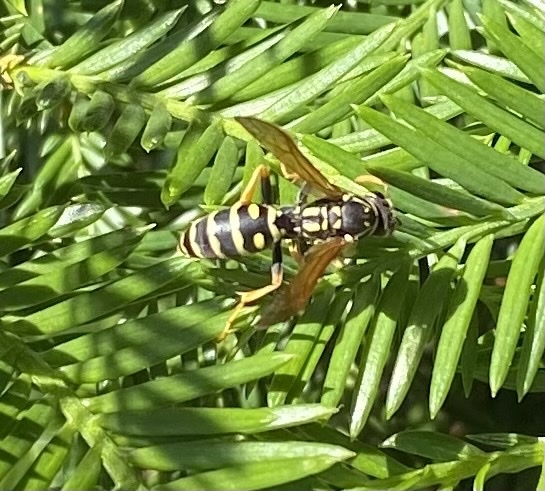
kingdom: Animalia
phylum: Arthropoda
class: Insecta
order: Hymenoptera
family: Eumenidae
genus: Polistes
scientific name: Polistes dominula
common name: Paper wasp
